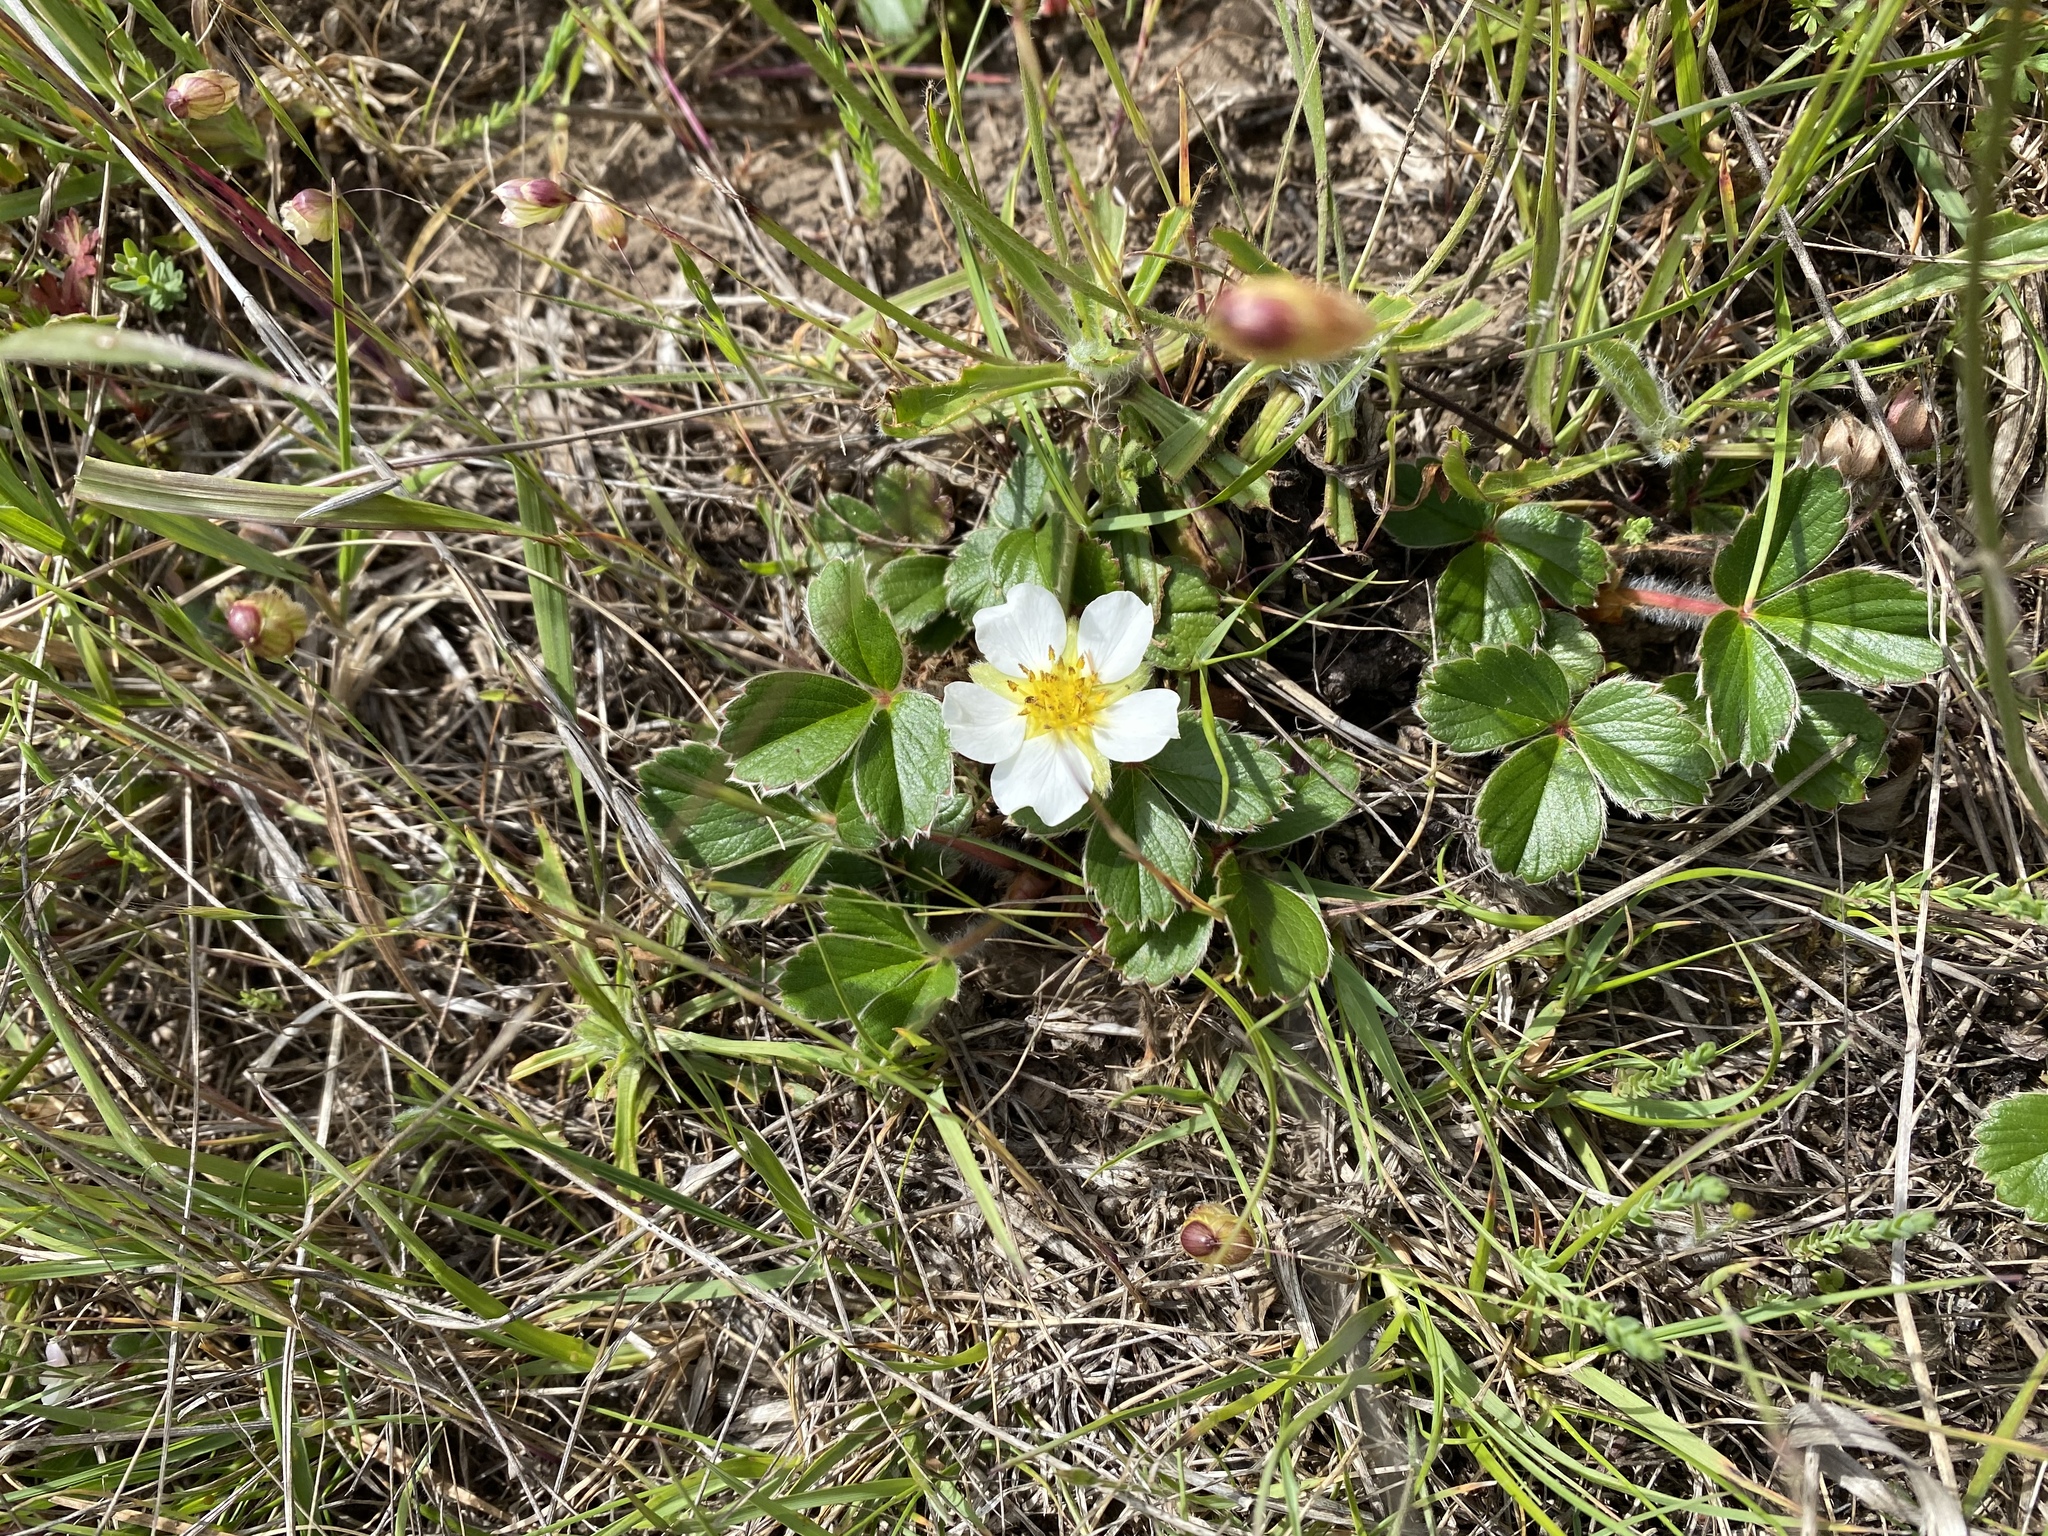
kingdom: Plantae
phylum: Tracheophyta
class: Magnoliopsida
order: Rosales
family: Rosaceae
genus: Fragaria
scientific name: Fragaria chiloensis
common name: Beach strawberry
